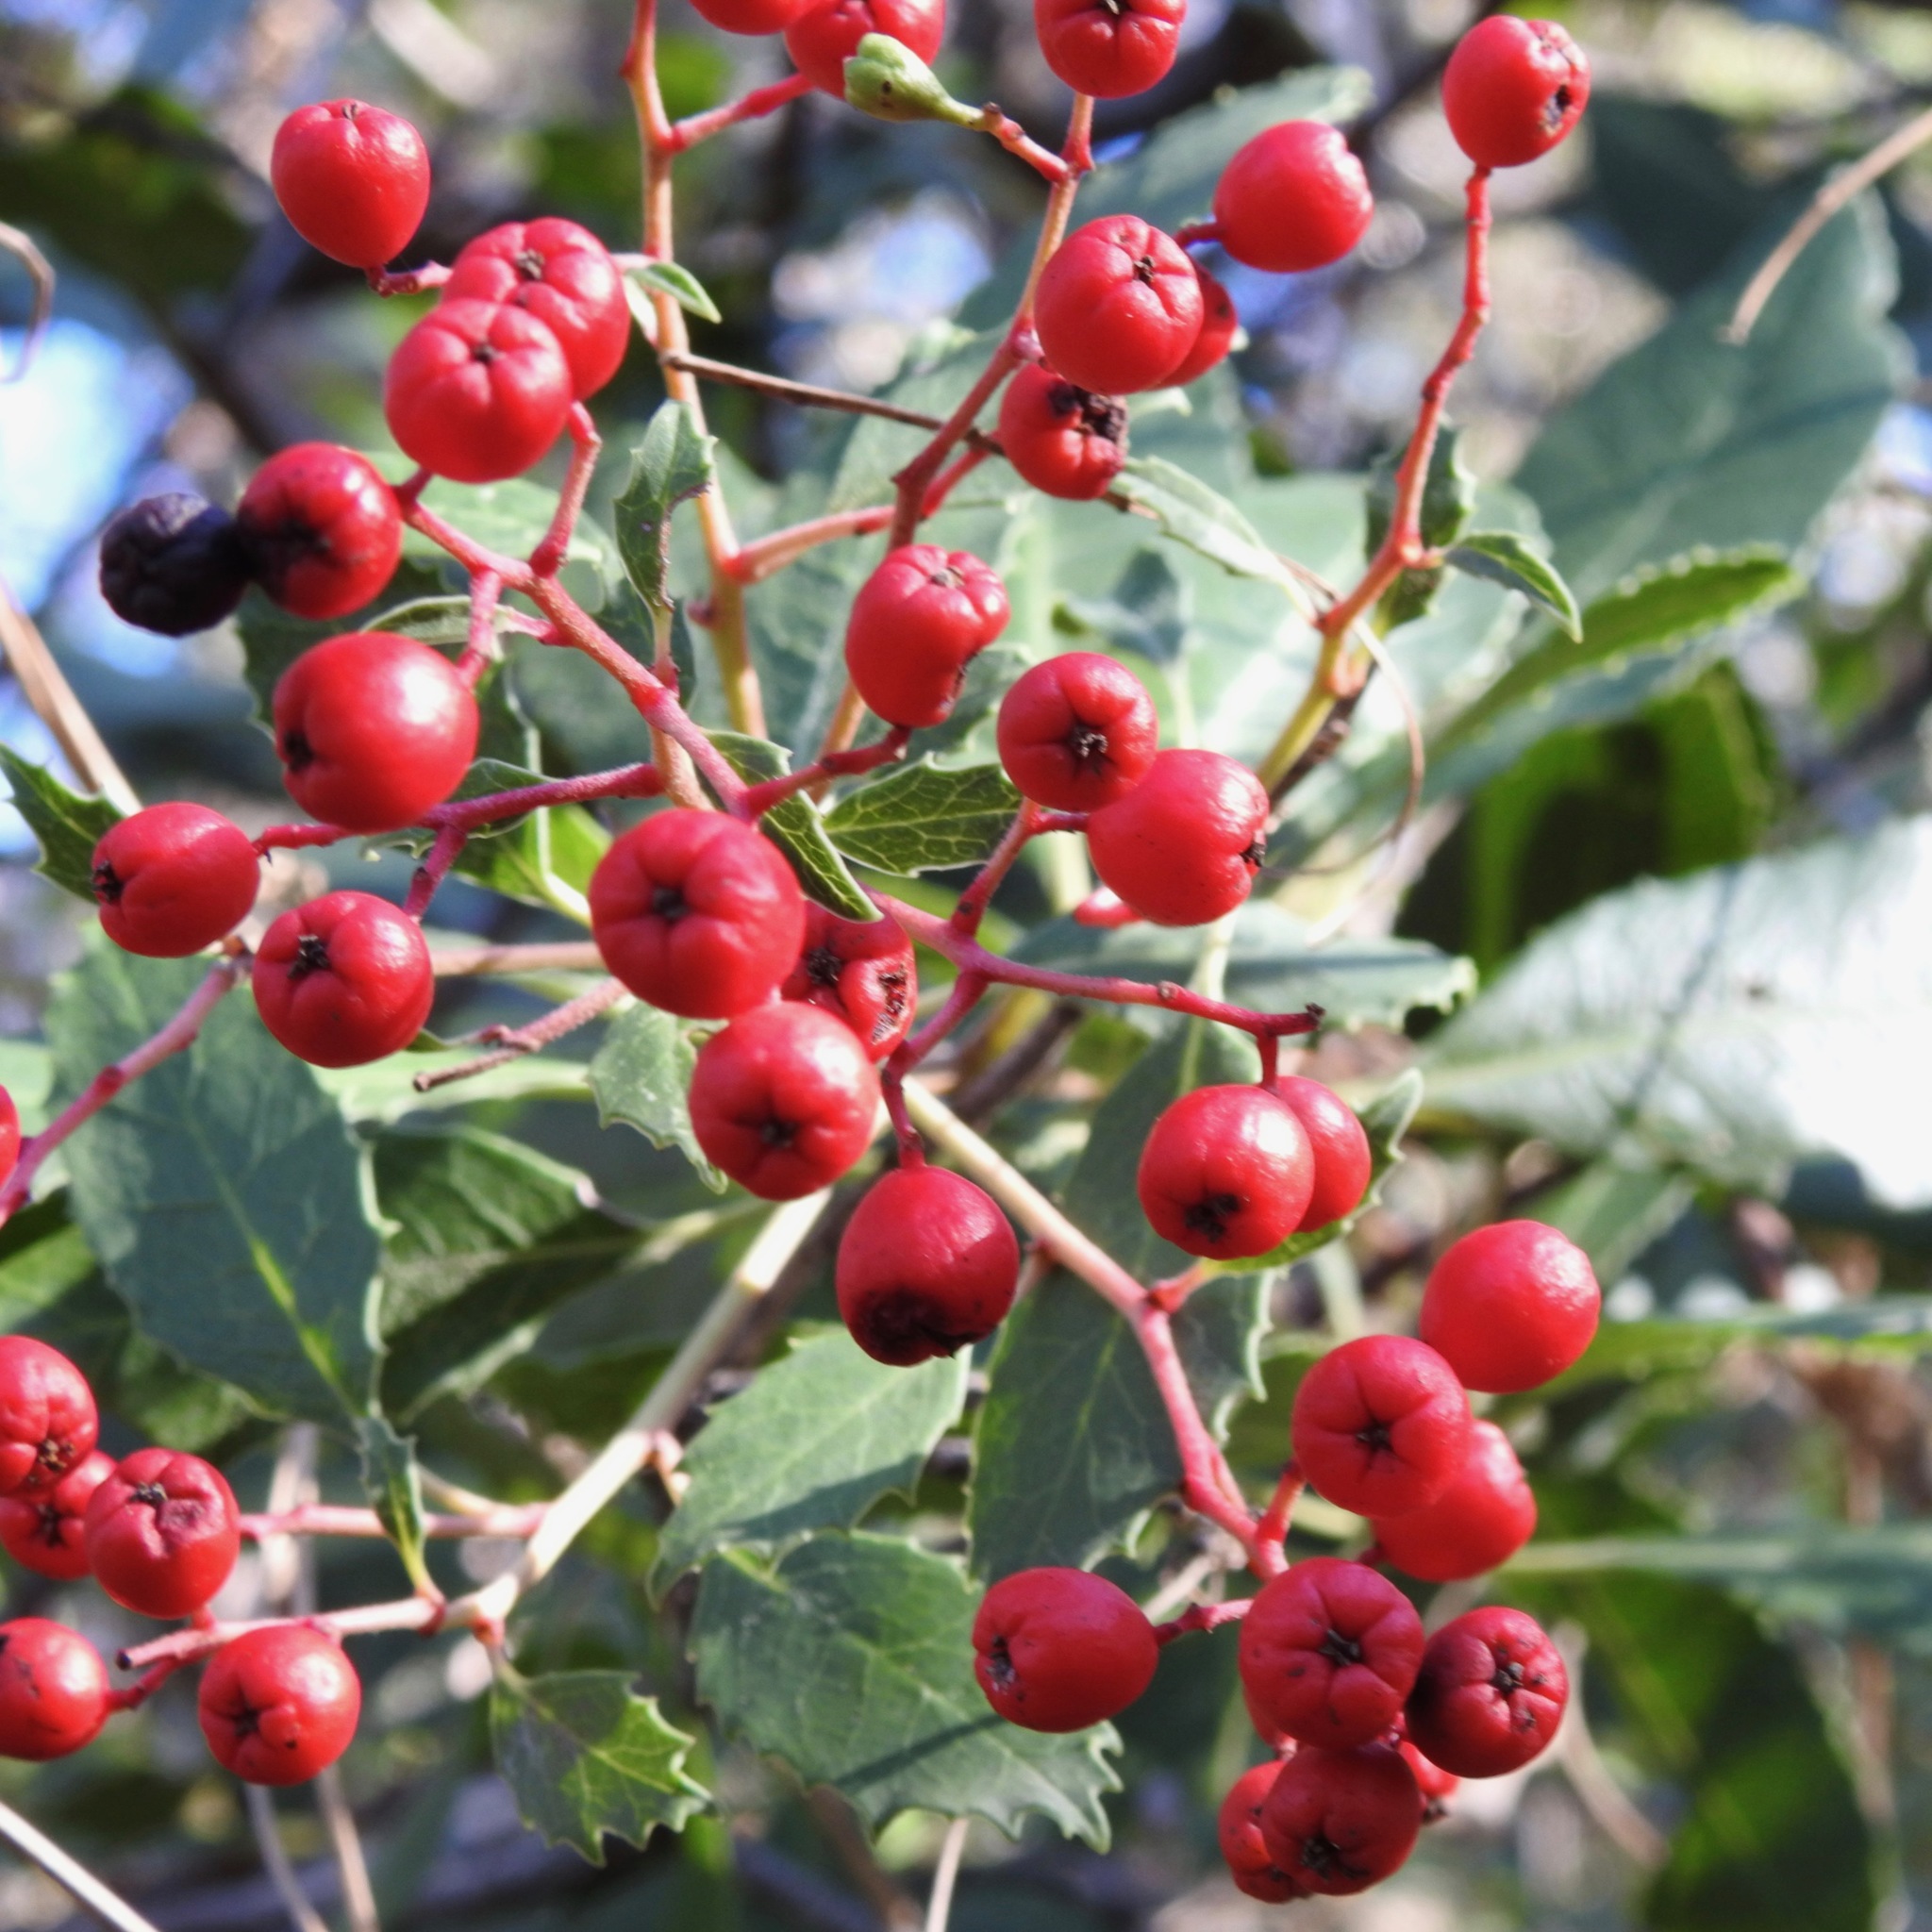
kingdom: Plantae
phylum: Tracheophyta
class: Magnoliopsida
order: Rosales
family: Rosaceae
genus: Heteromeles
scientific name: Heteromeles arbutifolia
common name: California-holly
